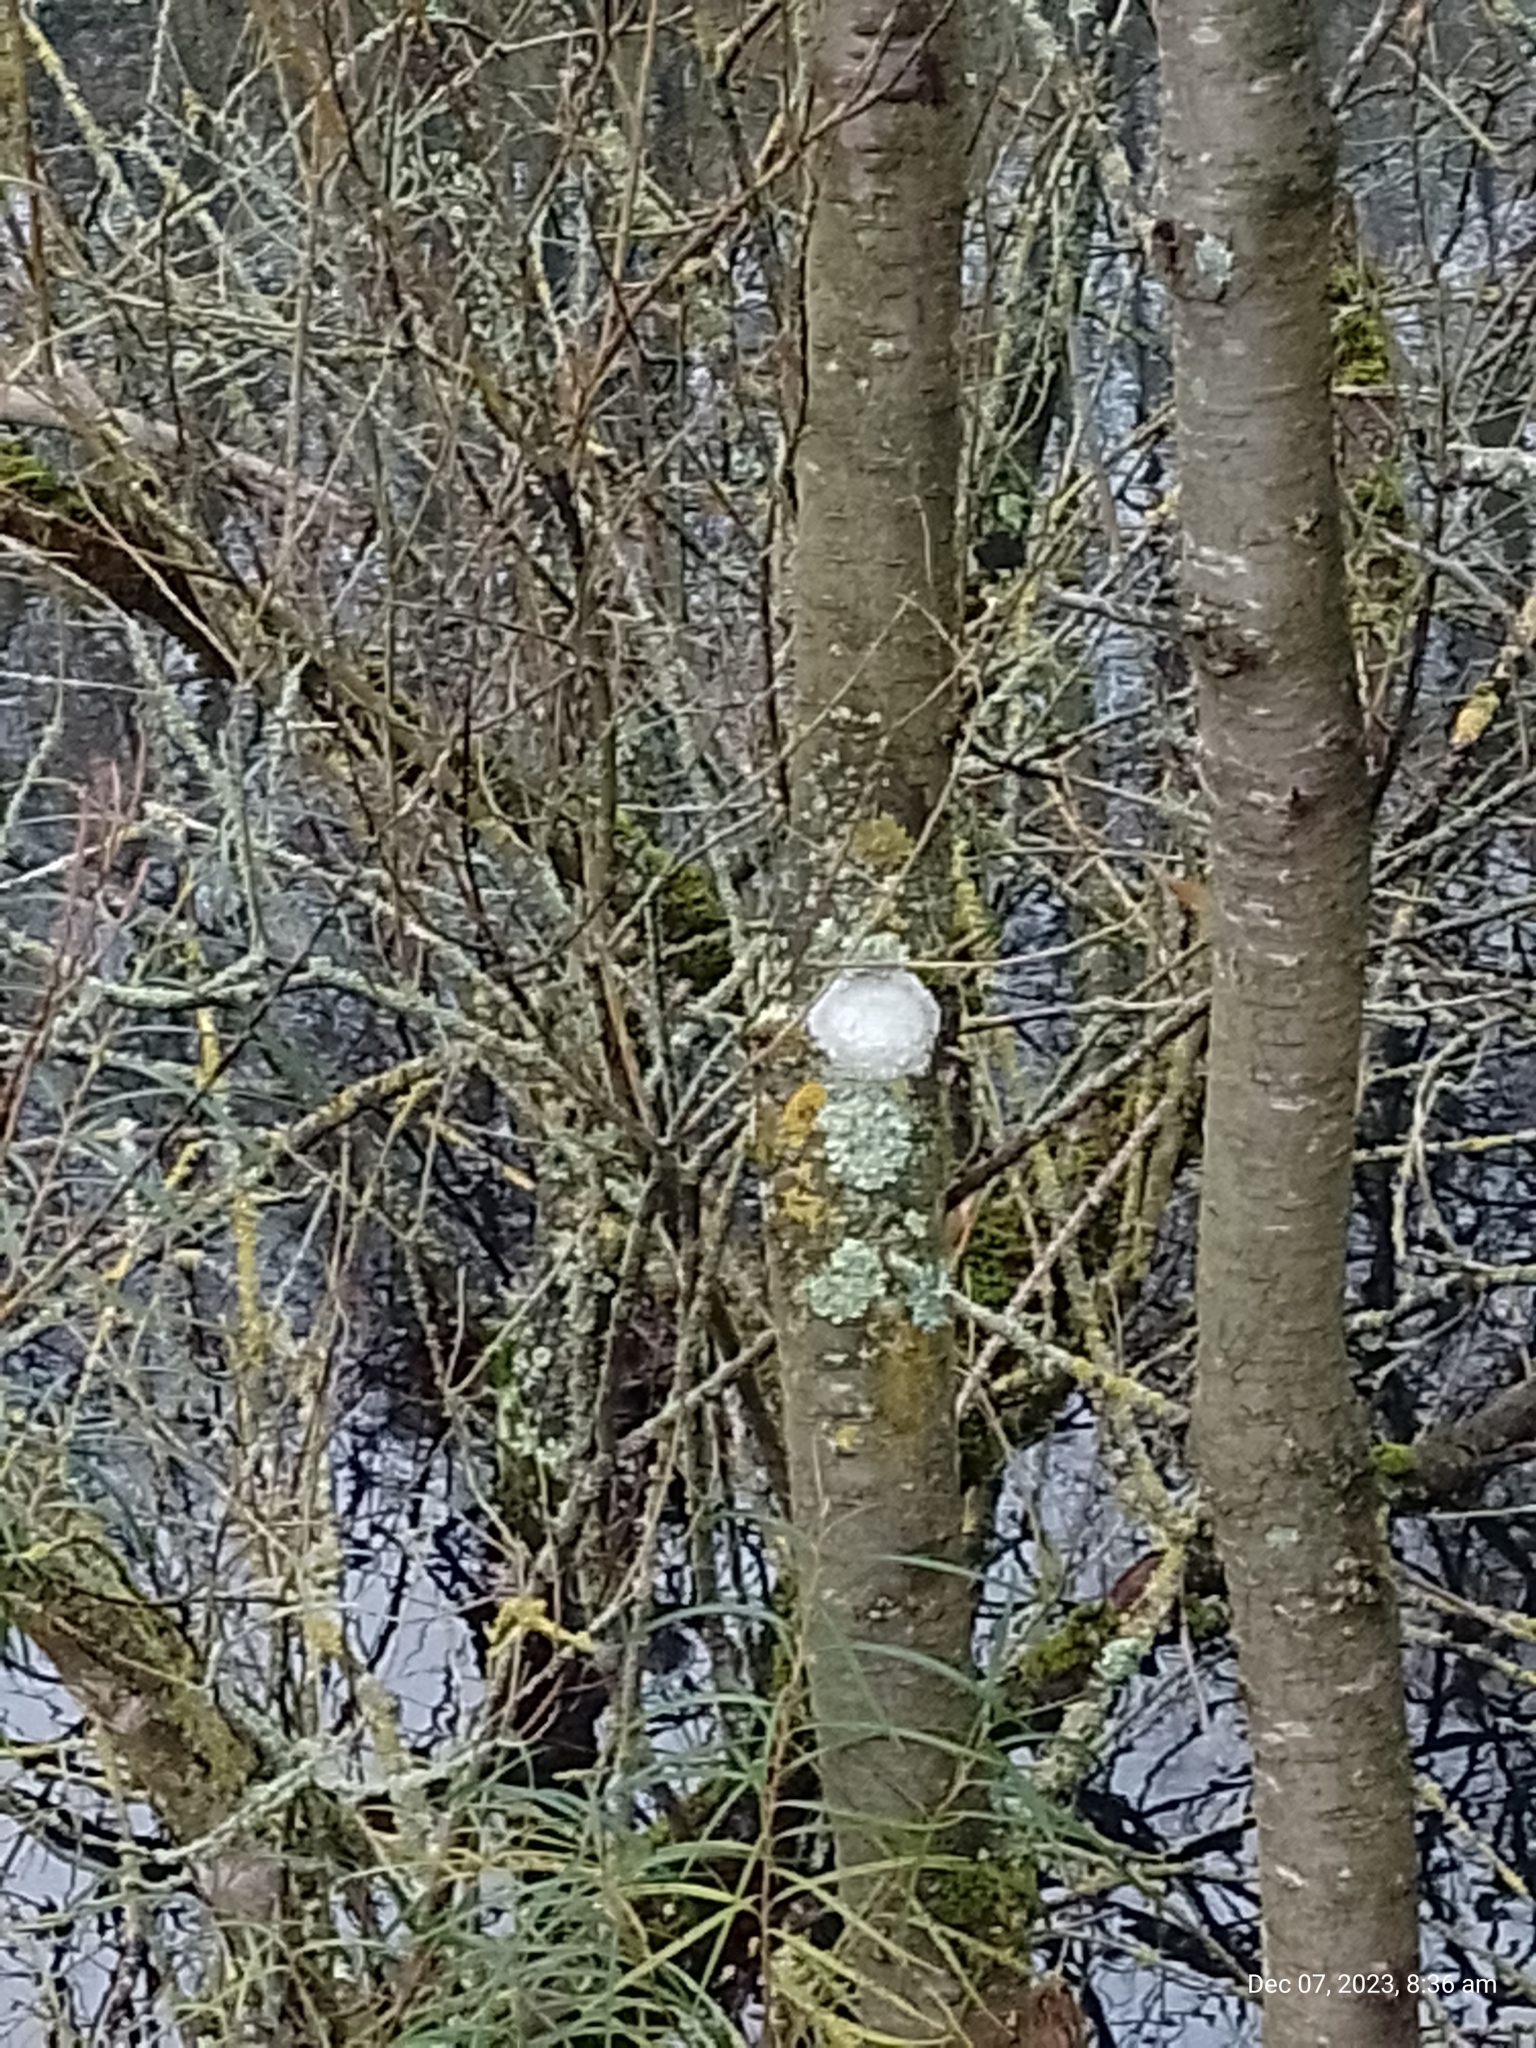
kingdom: Fungi
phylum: Ascomycota
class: Lecanoromycetes
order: Ostropales
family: Phlyctidaceae
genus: Phlyctis
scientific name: Phlyctis argena
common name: Whitewash lichen
